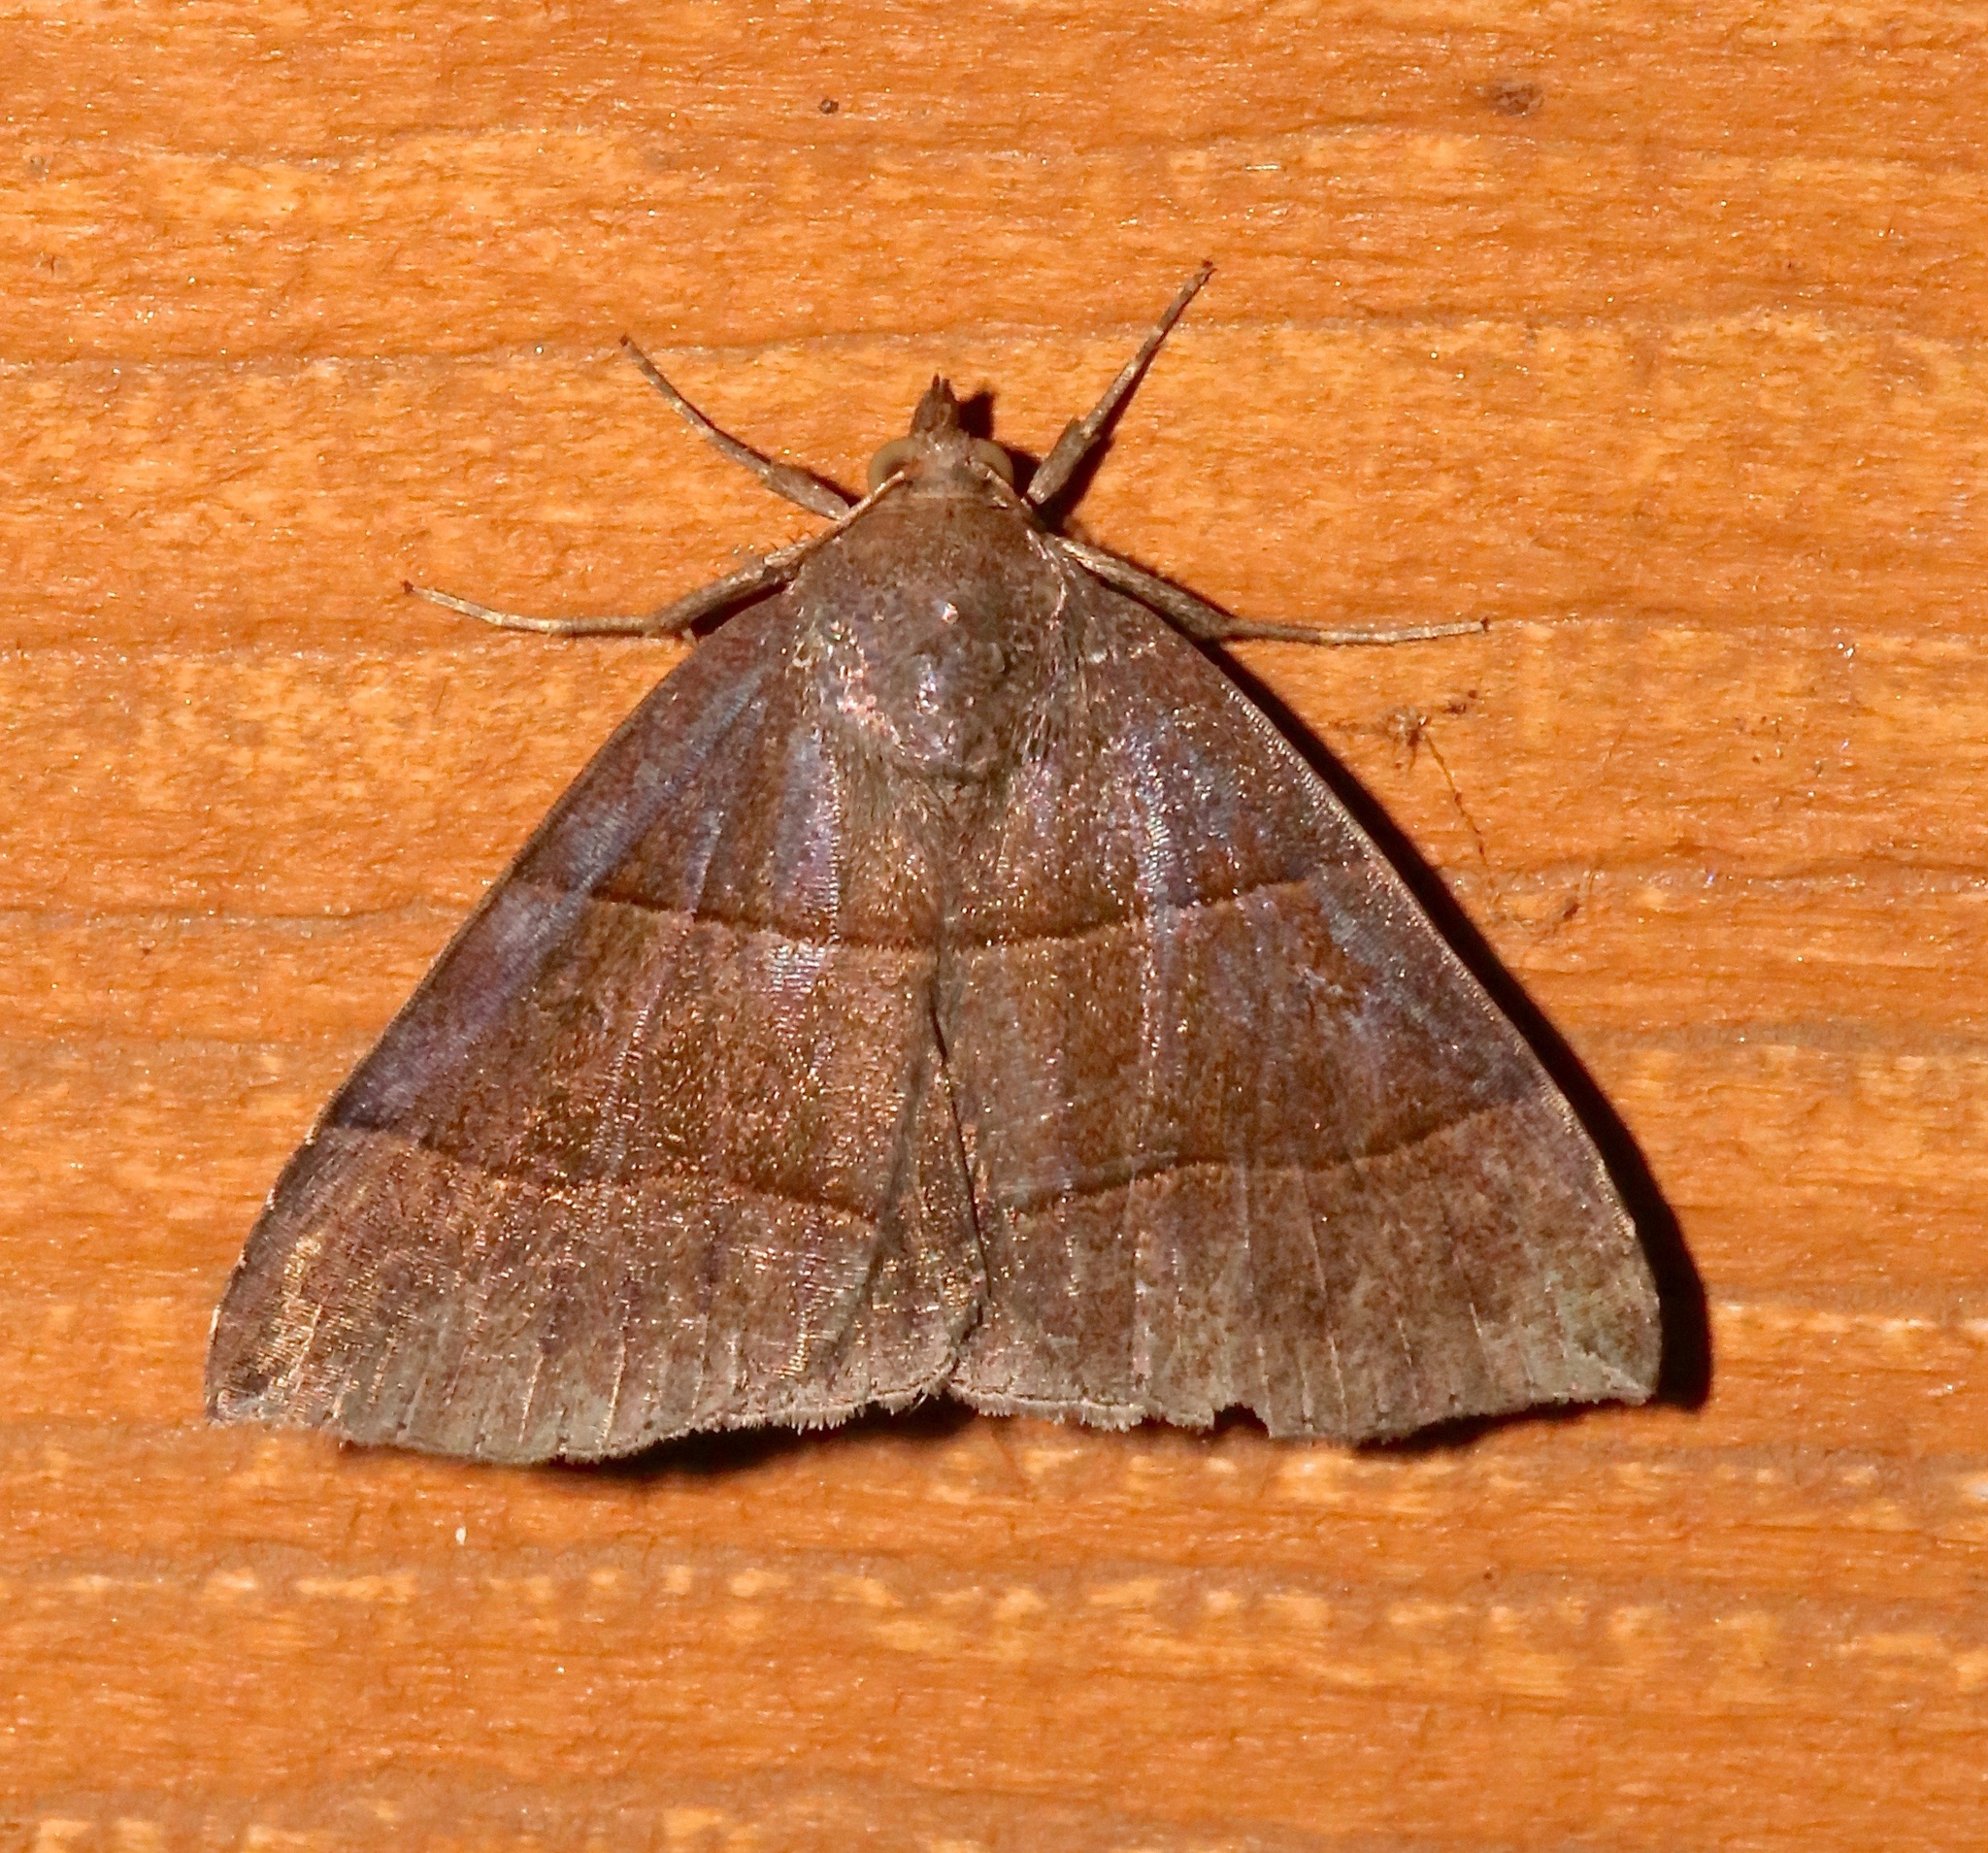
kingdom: Animalia
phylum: Arthropoda
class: Insecta
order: Lepidoptera
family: Erebidae
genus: Parallelia
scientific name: Parallelia bistriaris
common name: Maple looper moth
